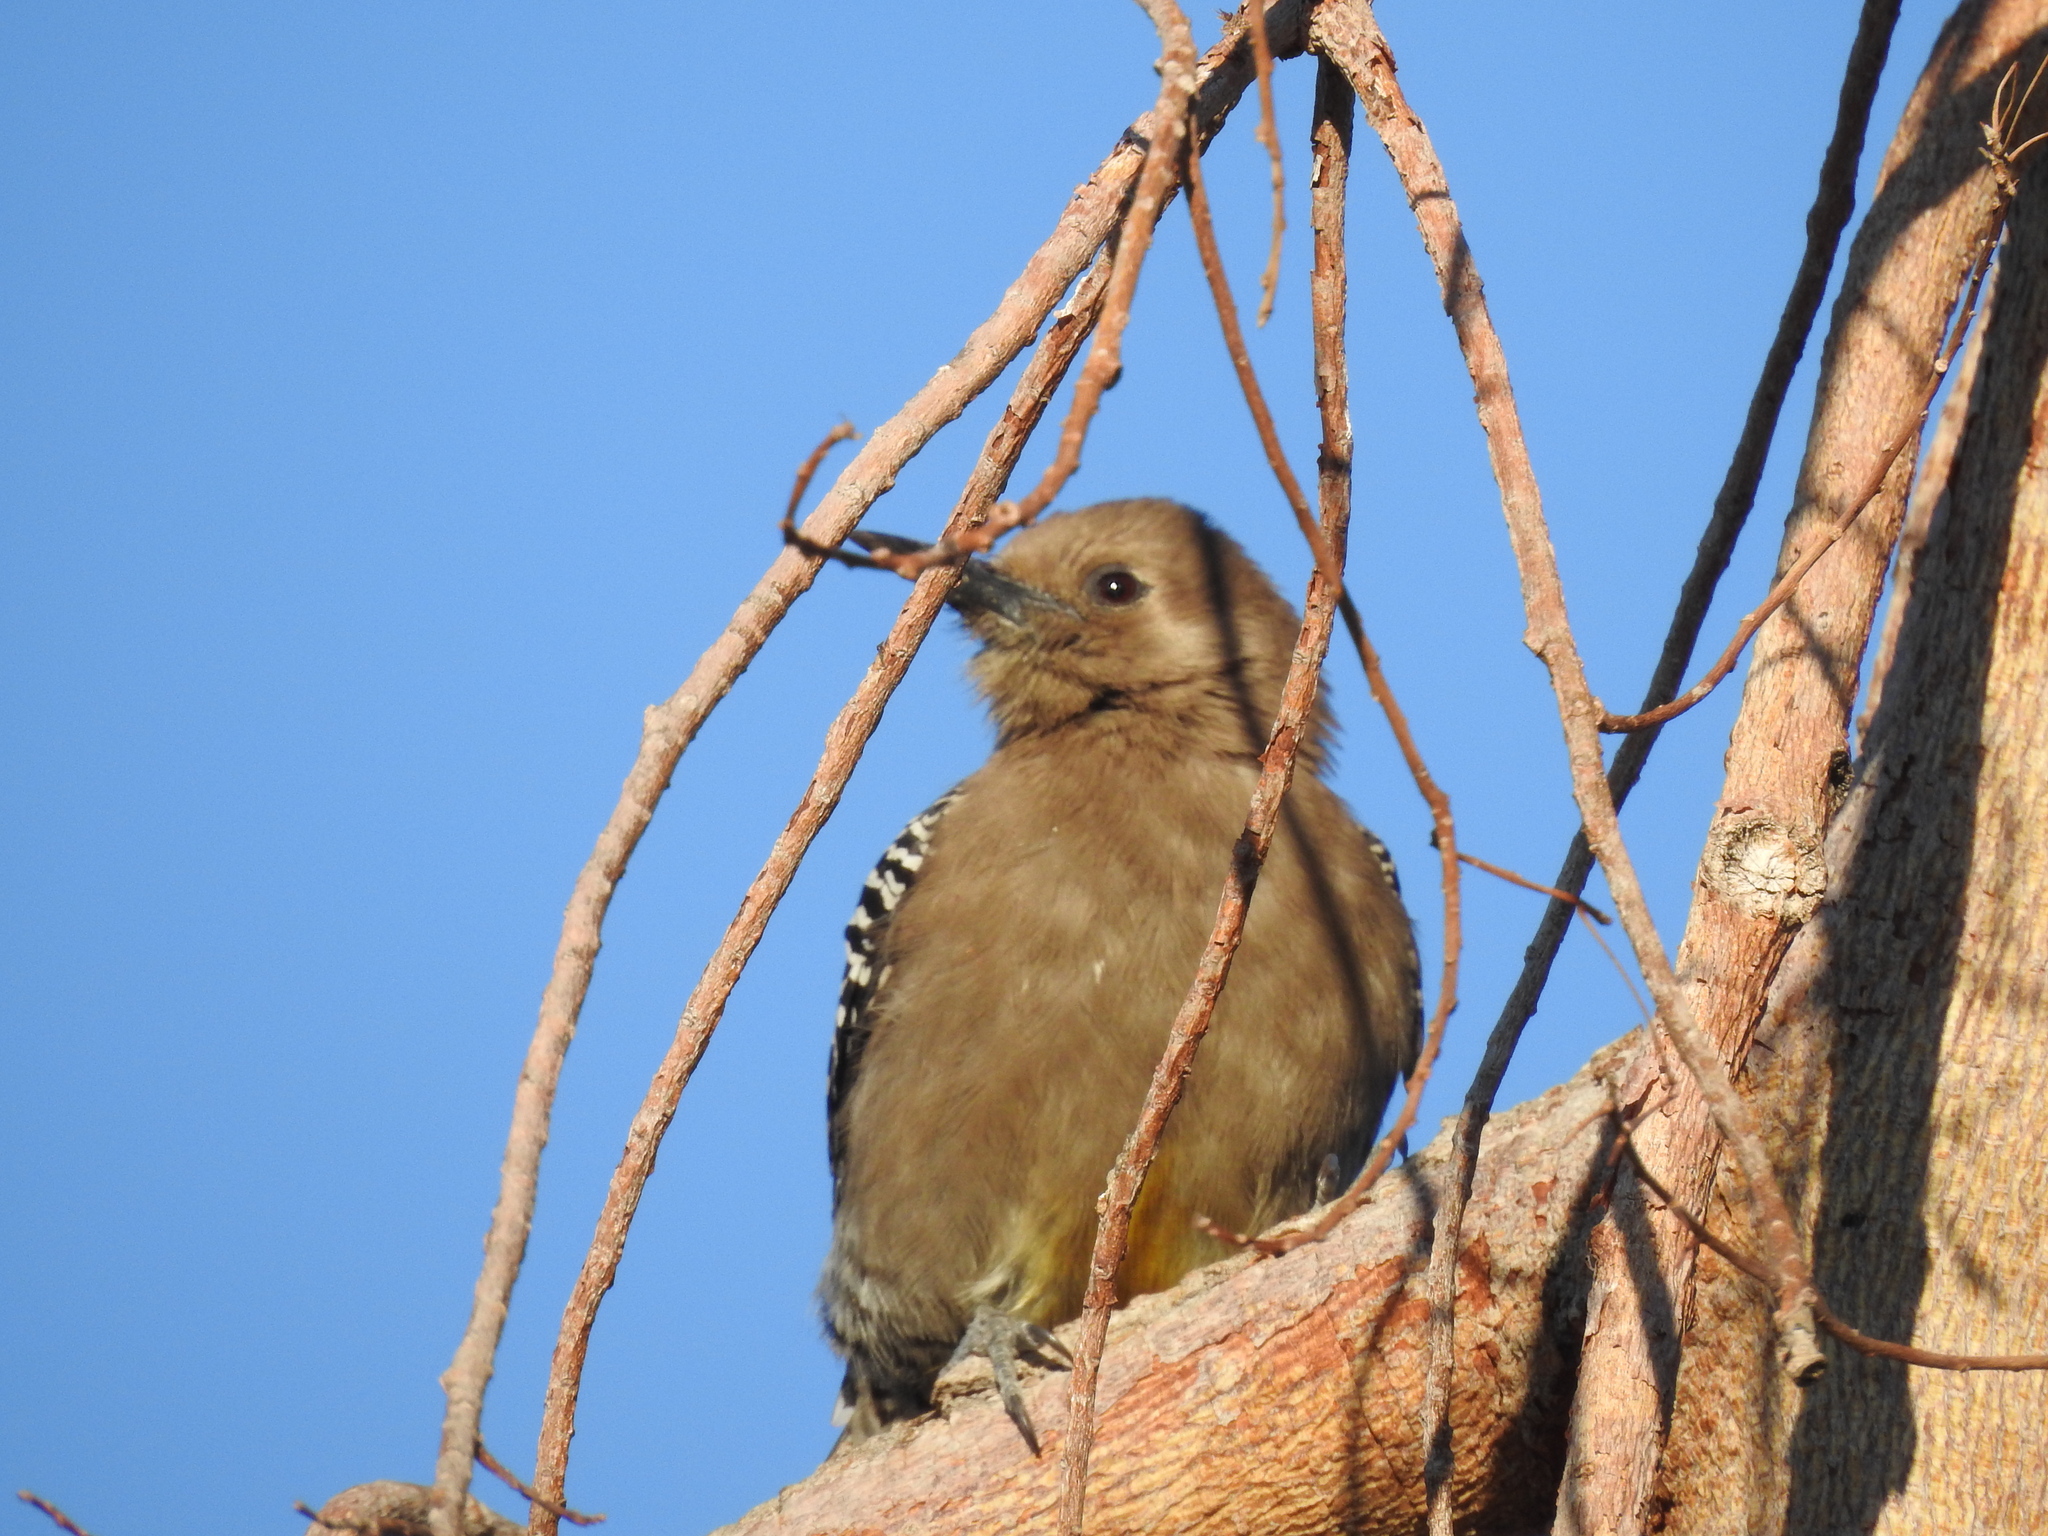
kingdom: Animalia
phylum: Chordata
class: Aves
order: Piciformes
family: Picidae
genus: Melanerpes
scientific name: Melanerpes uropygialis
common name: Gila woodpecker
